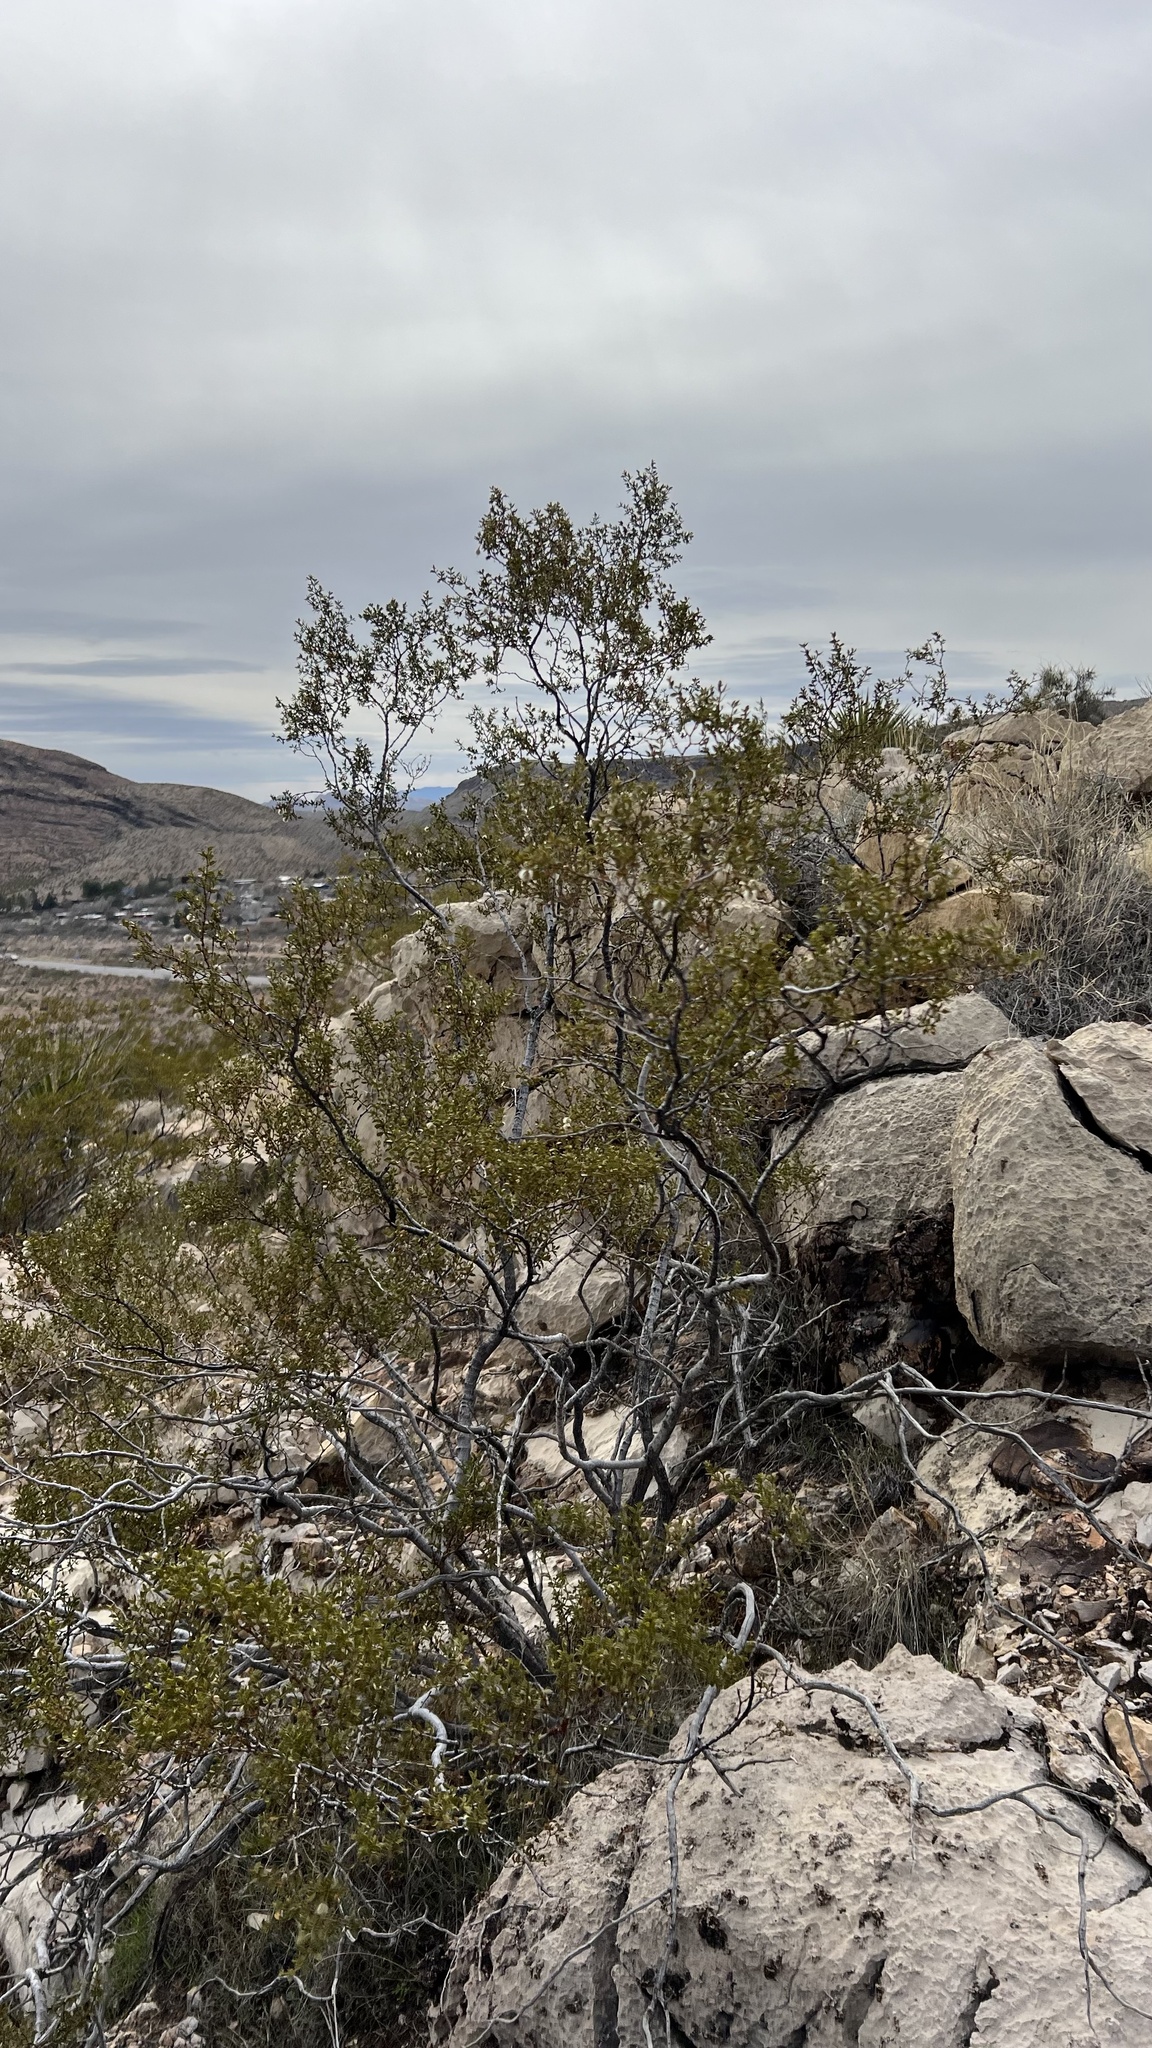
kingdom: Plantae
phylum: Tracheophyta
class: Magnoliopsida
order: Zygophyllales
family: Zygophyllaceae
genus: Larrea
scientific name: Larrea tridentata
